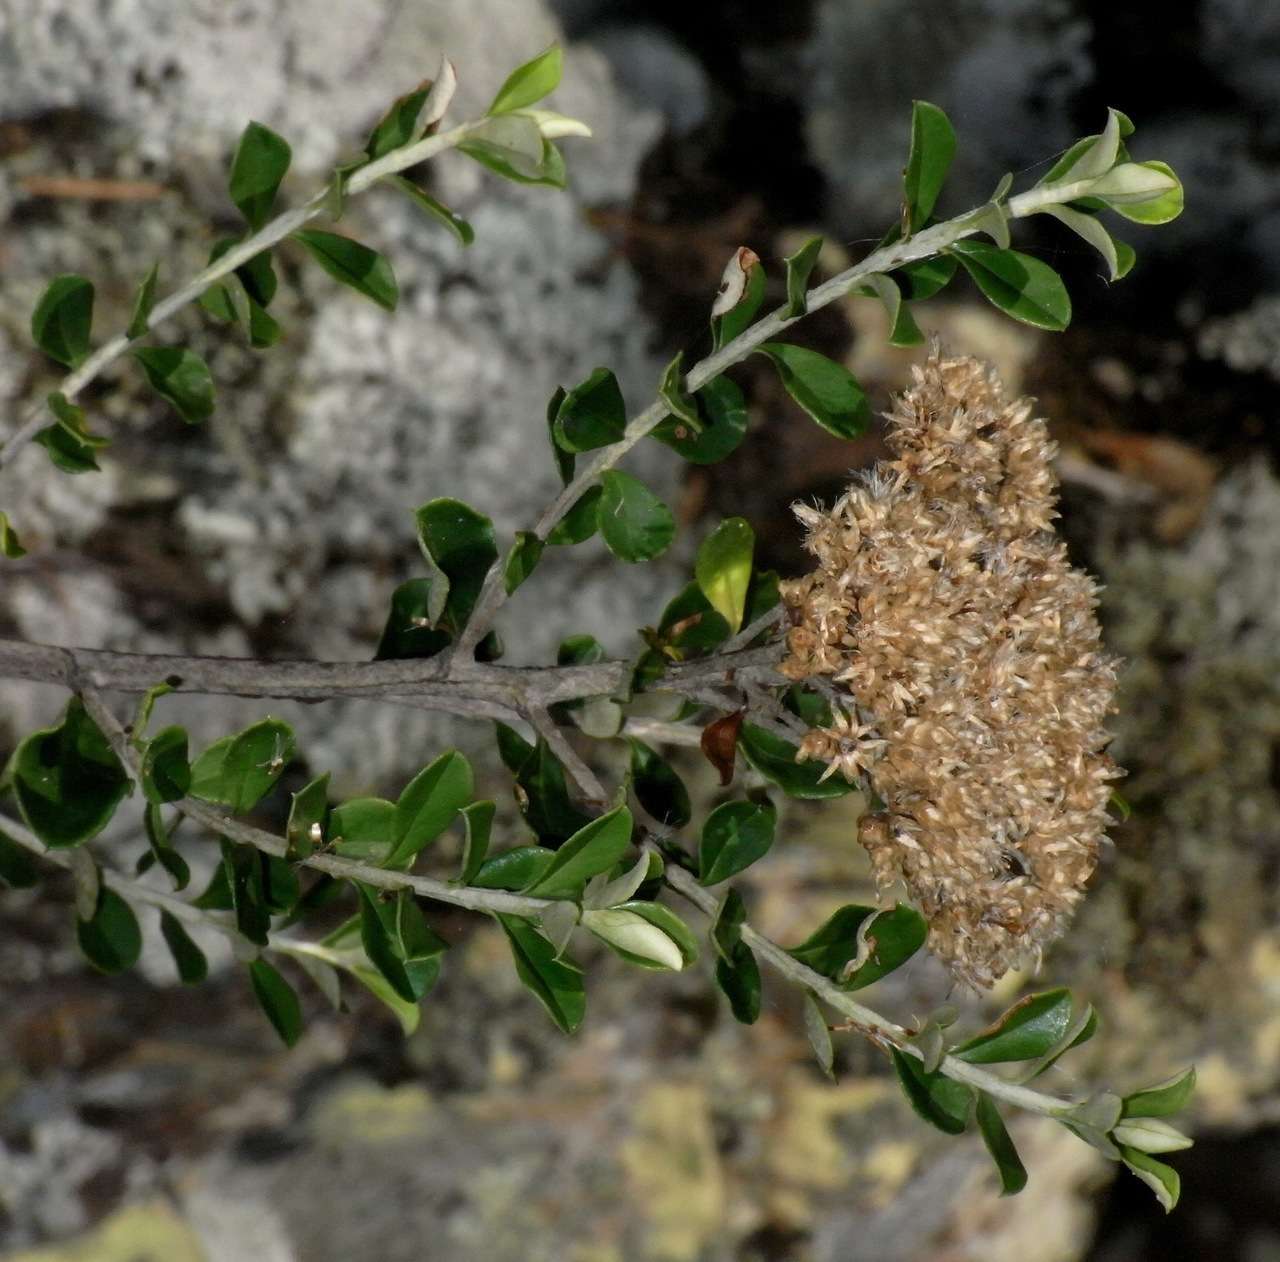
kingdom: Plantae
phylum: Tracheophyta
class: Magnoliopsida
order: Asterales
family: Asteraceae
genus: Ozothamnus
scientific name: Ozothamnus obcordatus
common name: Grey everlasting
